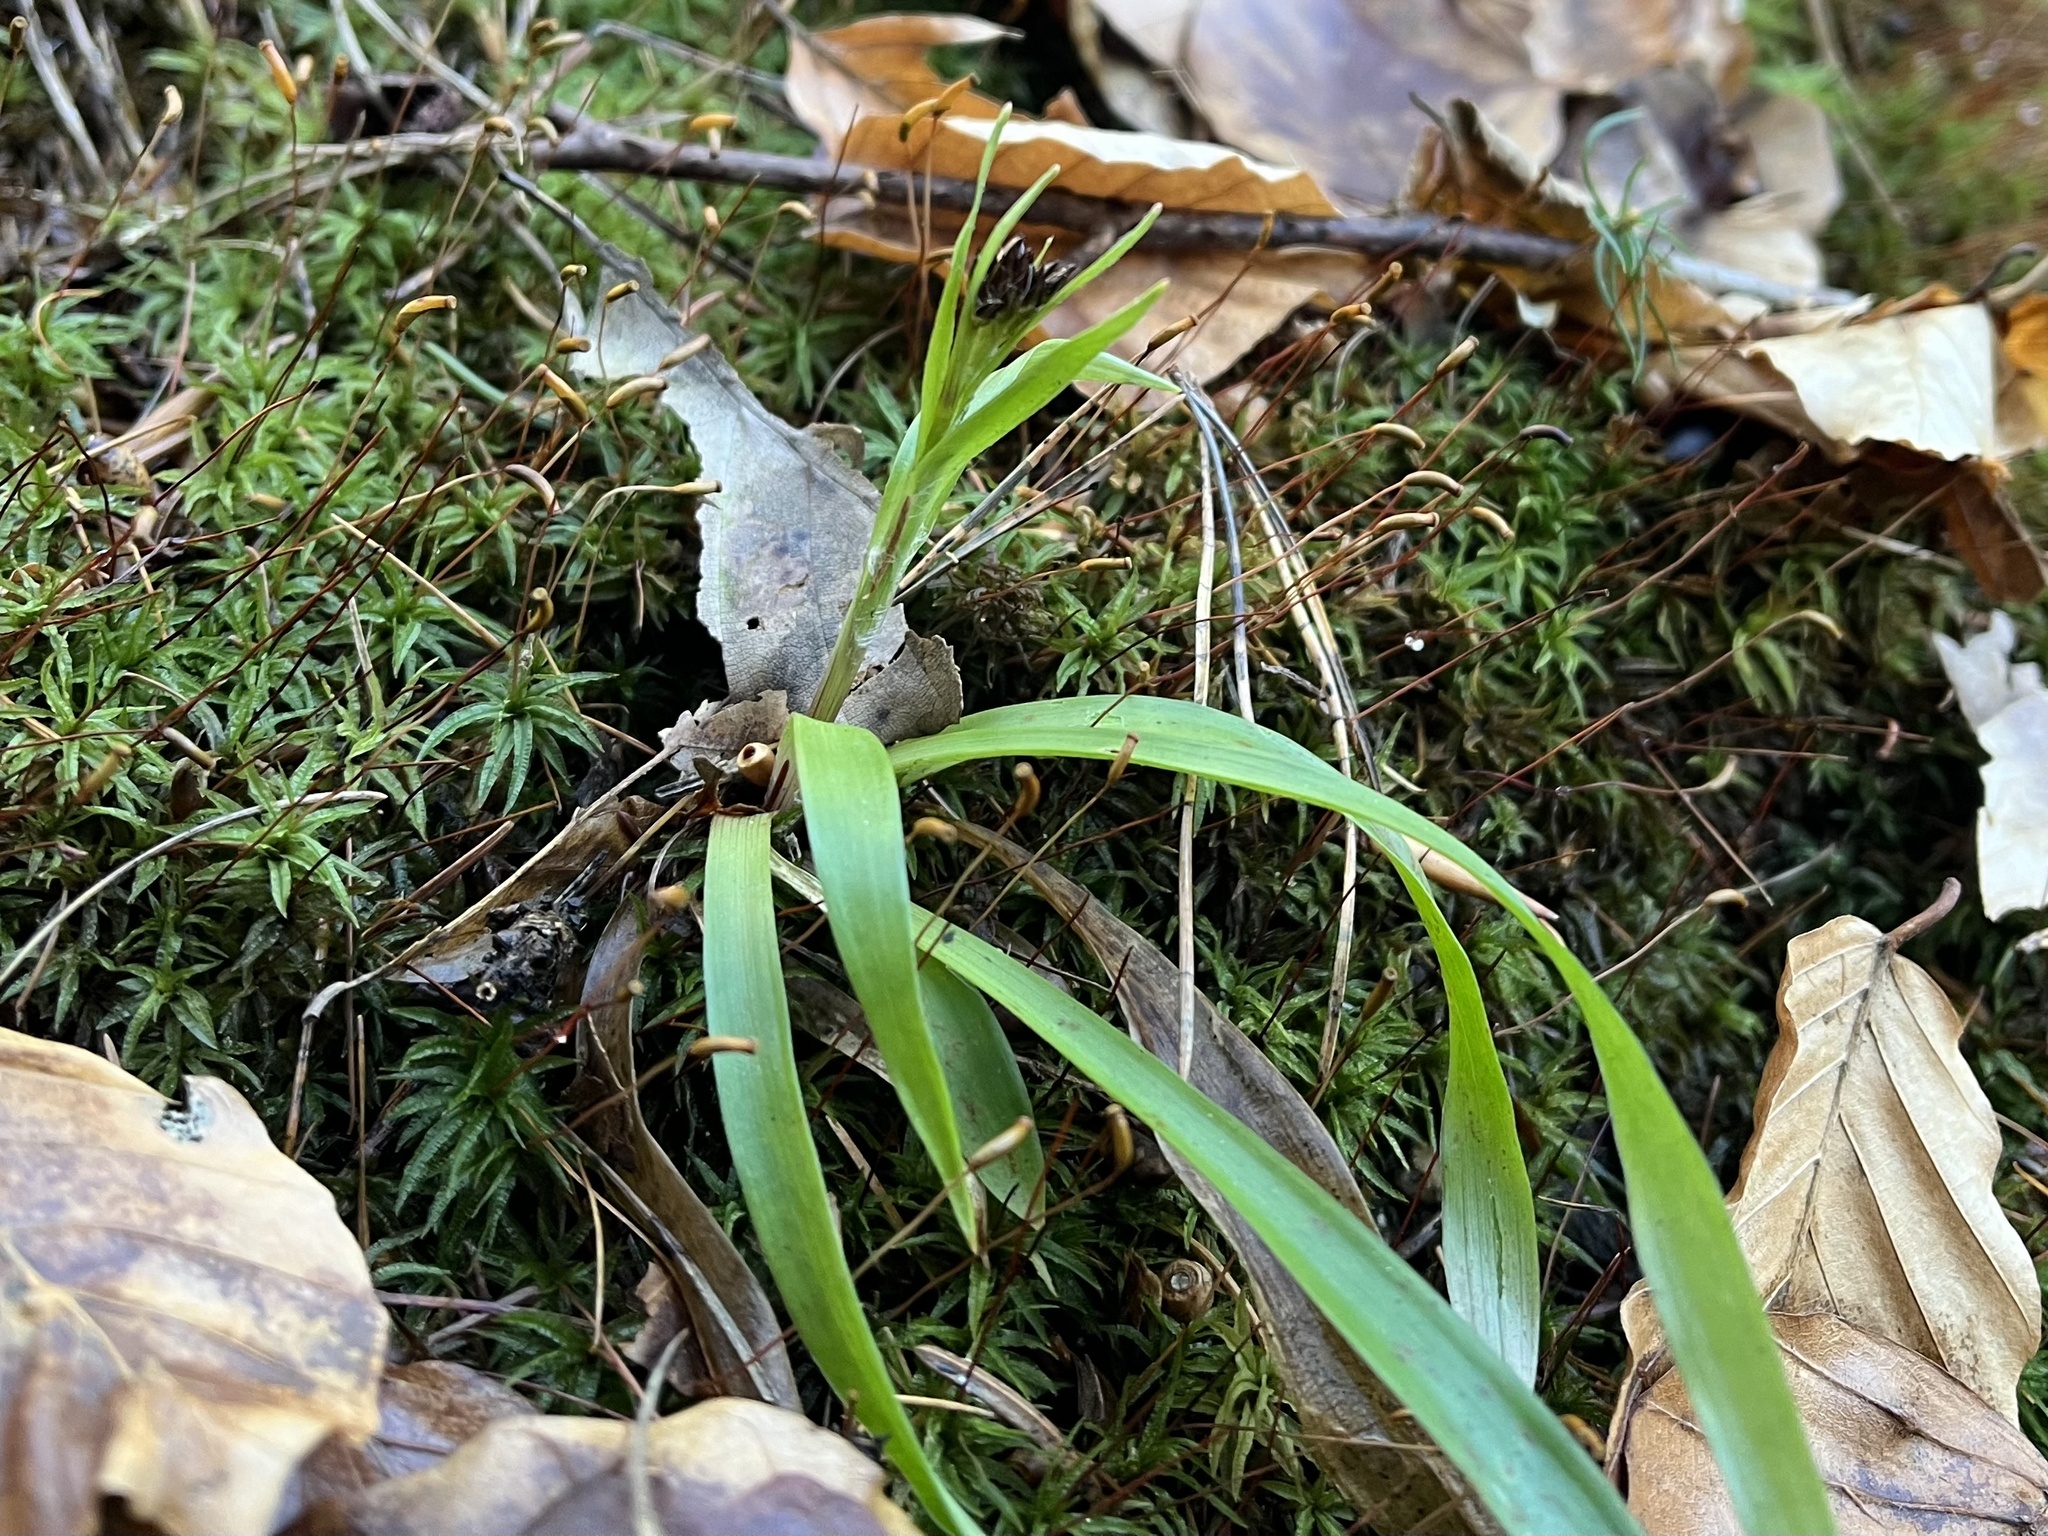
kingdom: Plantae
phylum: Tracheophyta
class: Liliopsida
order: Poales
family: Juncaceae
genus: Luzula
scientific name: Luzula pilosa
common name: Hairy wood-rush
